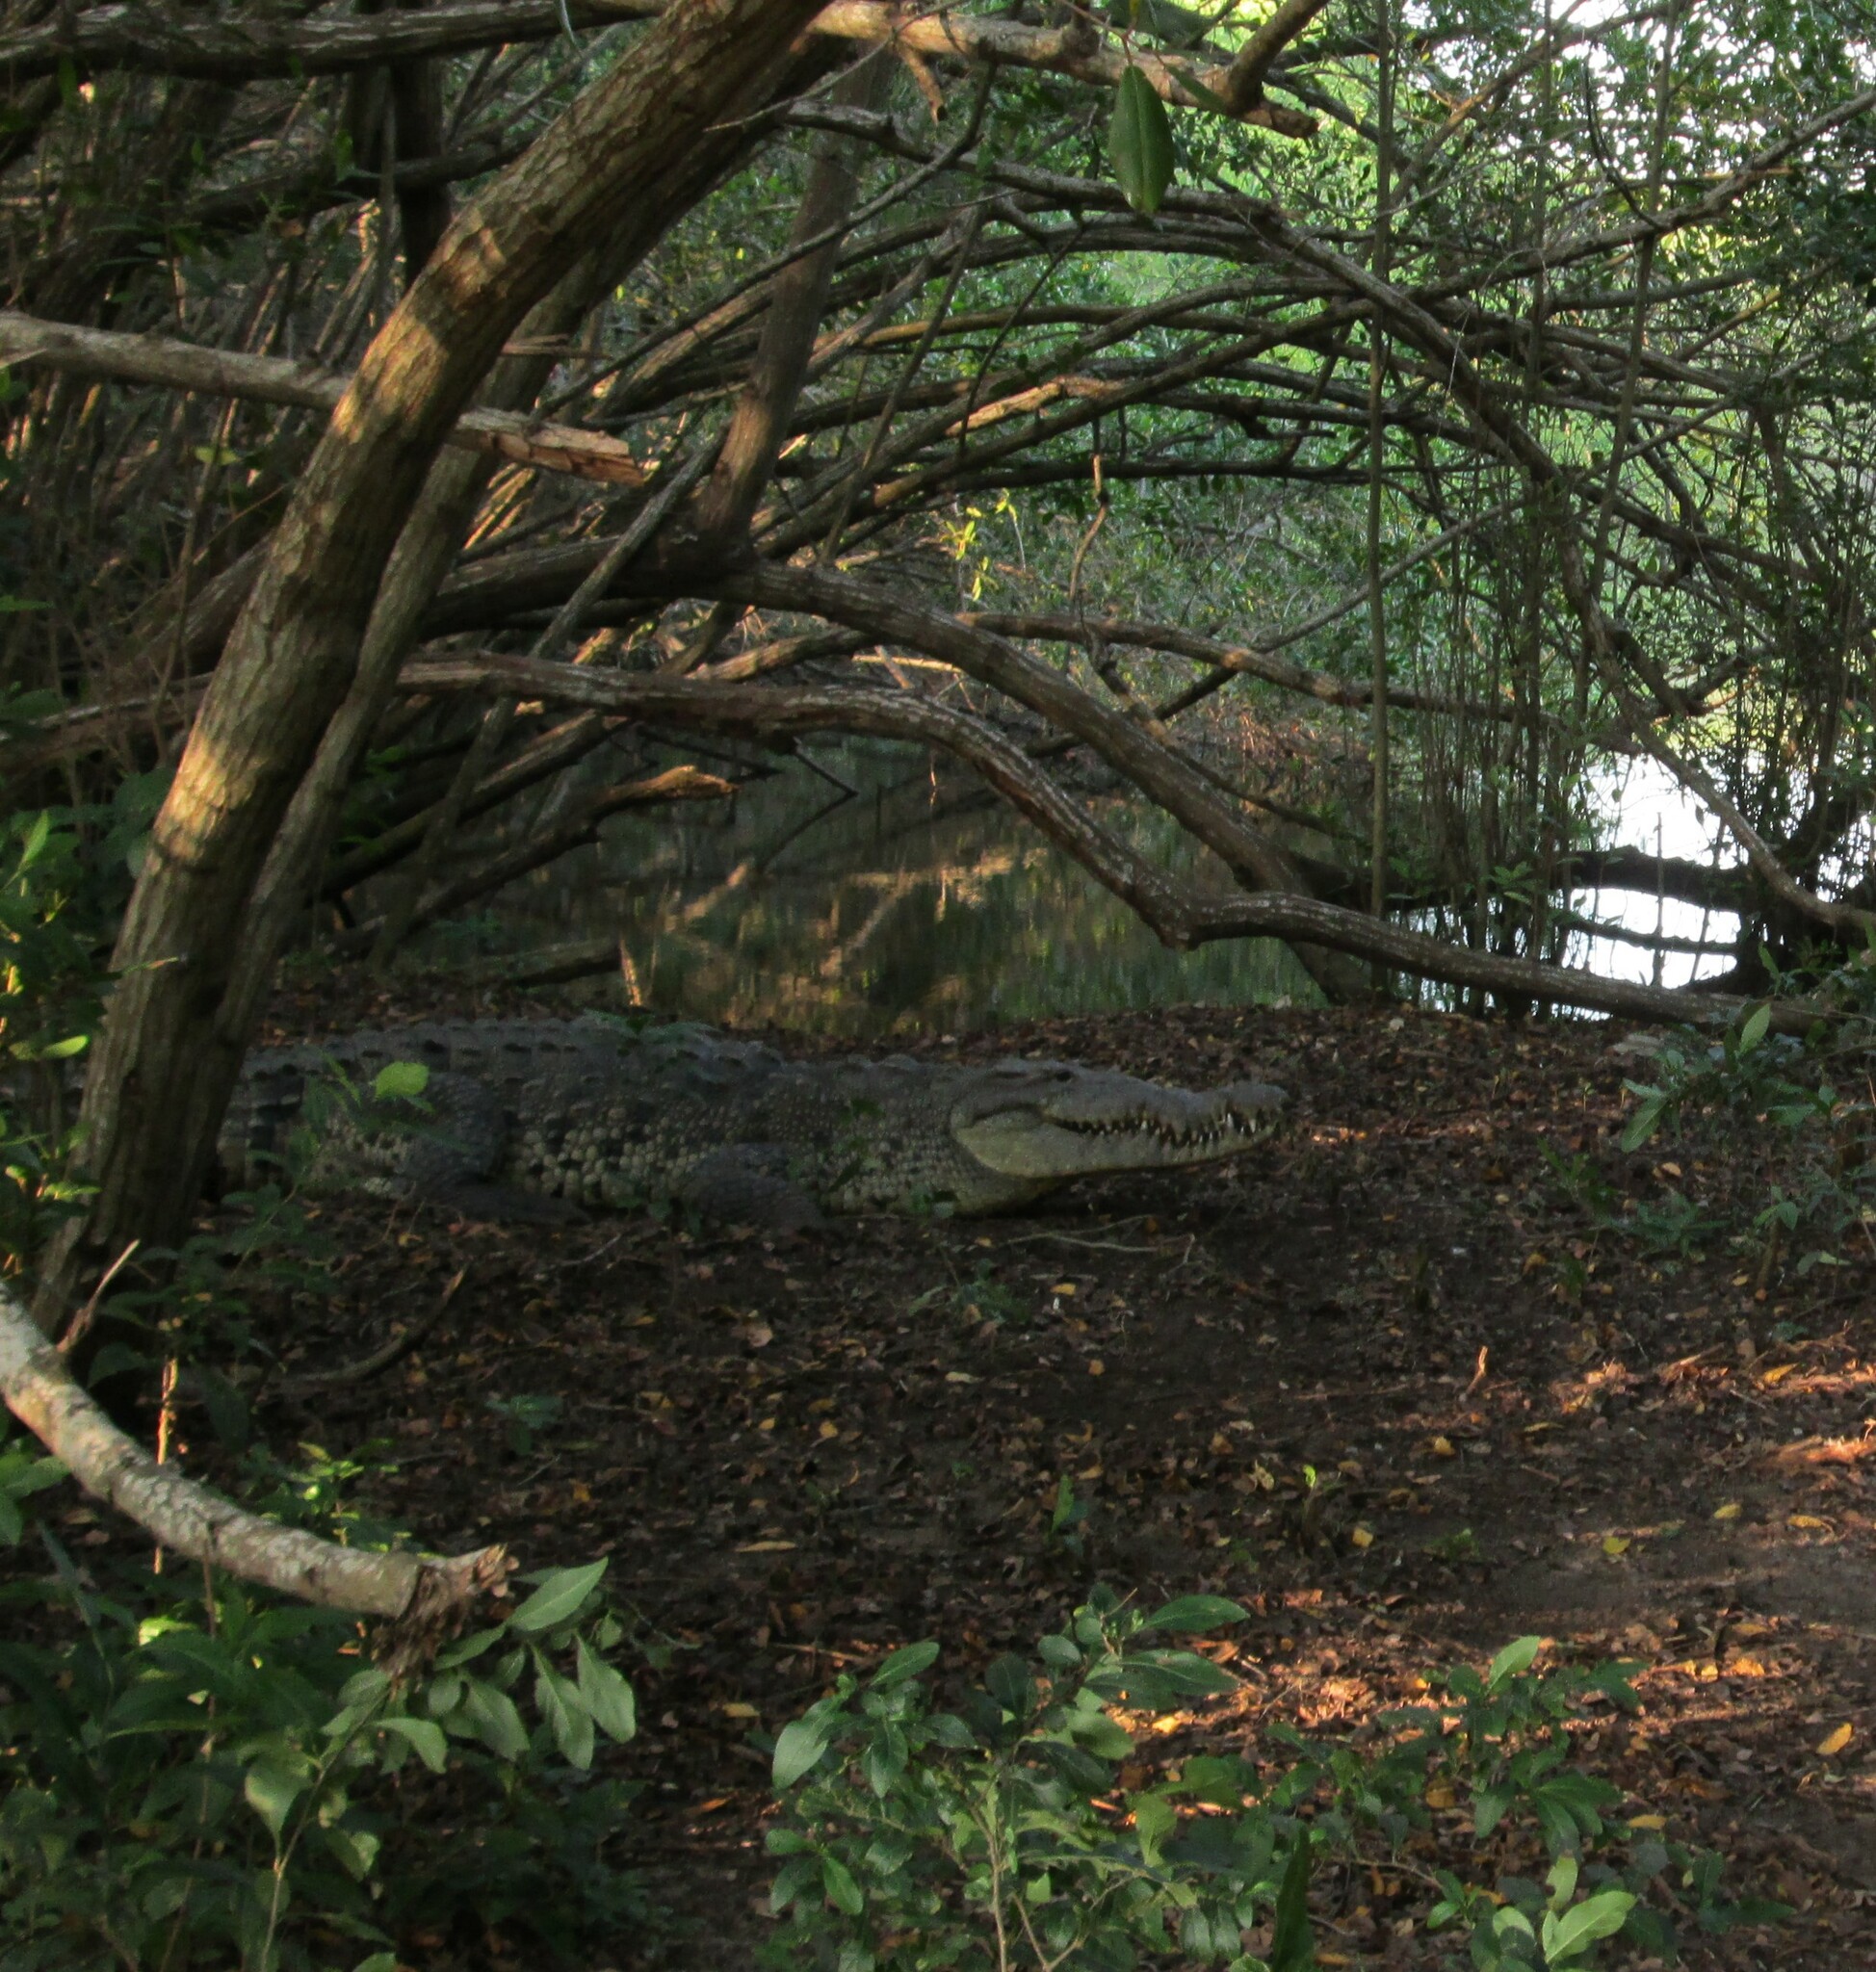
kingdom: Animalia
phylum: Chordata
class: Crocodylia
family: Crocodylidae
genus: Crocodylus
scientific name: Crocodylus acutus
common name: American crocodile
